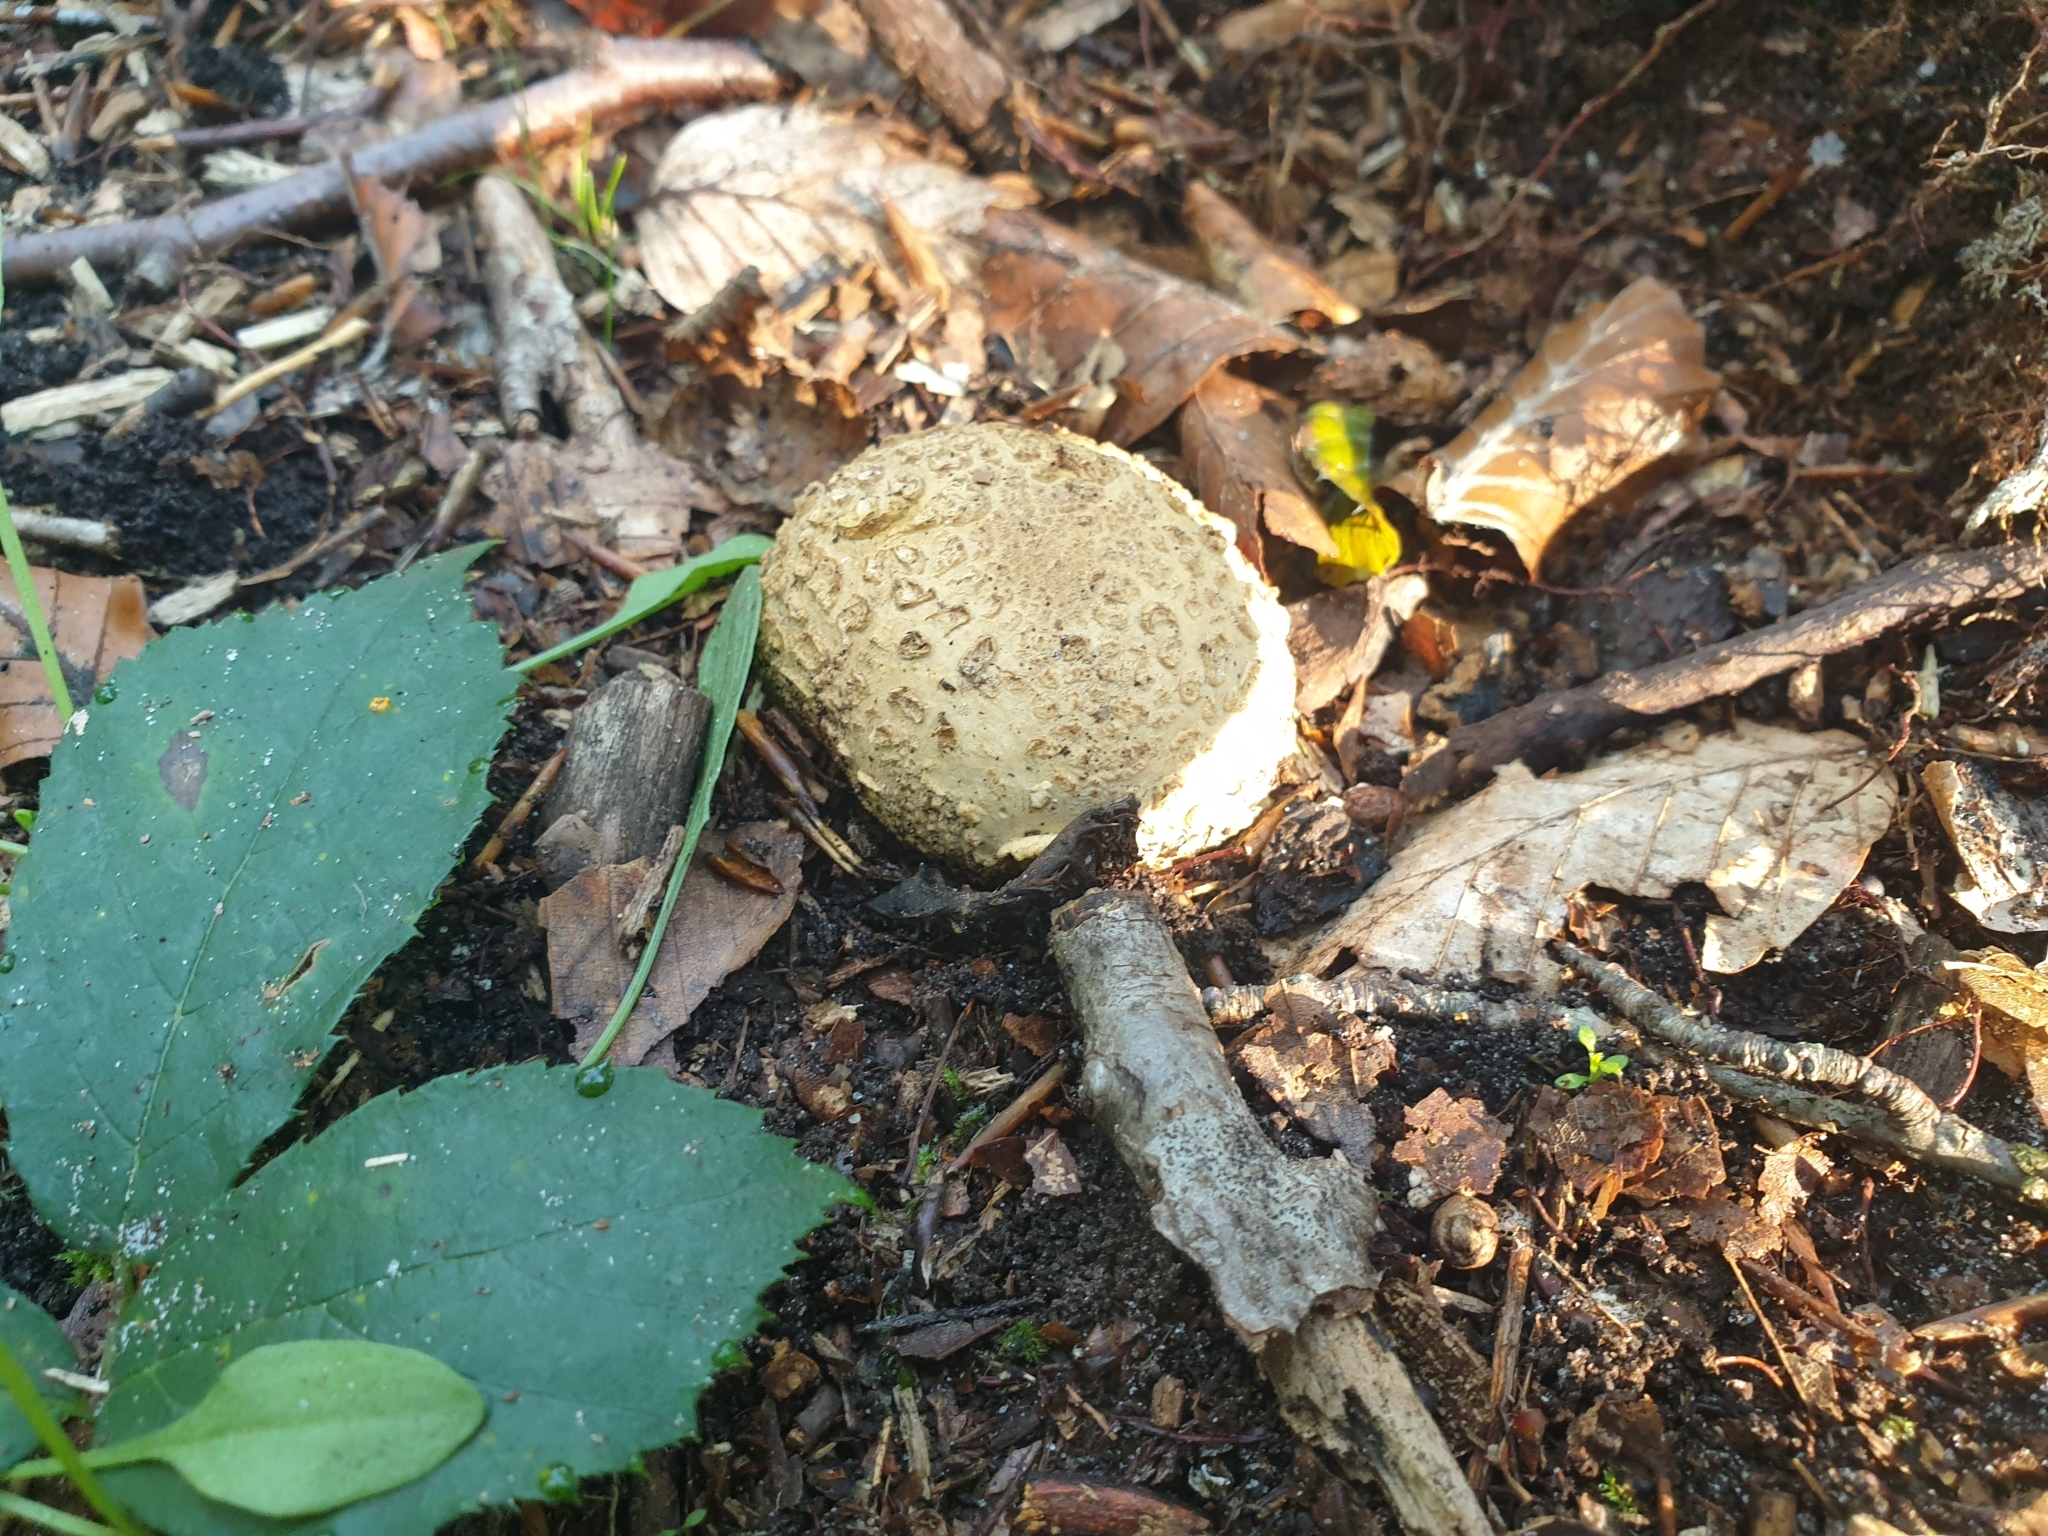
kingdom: Fungi
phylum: Basidiomycota
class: Agaricomycetes
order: Boletales
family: Sclerodermataceae
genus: Scleroderma
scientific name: Scleroderma citrinum
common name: Common earthball
